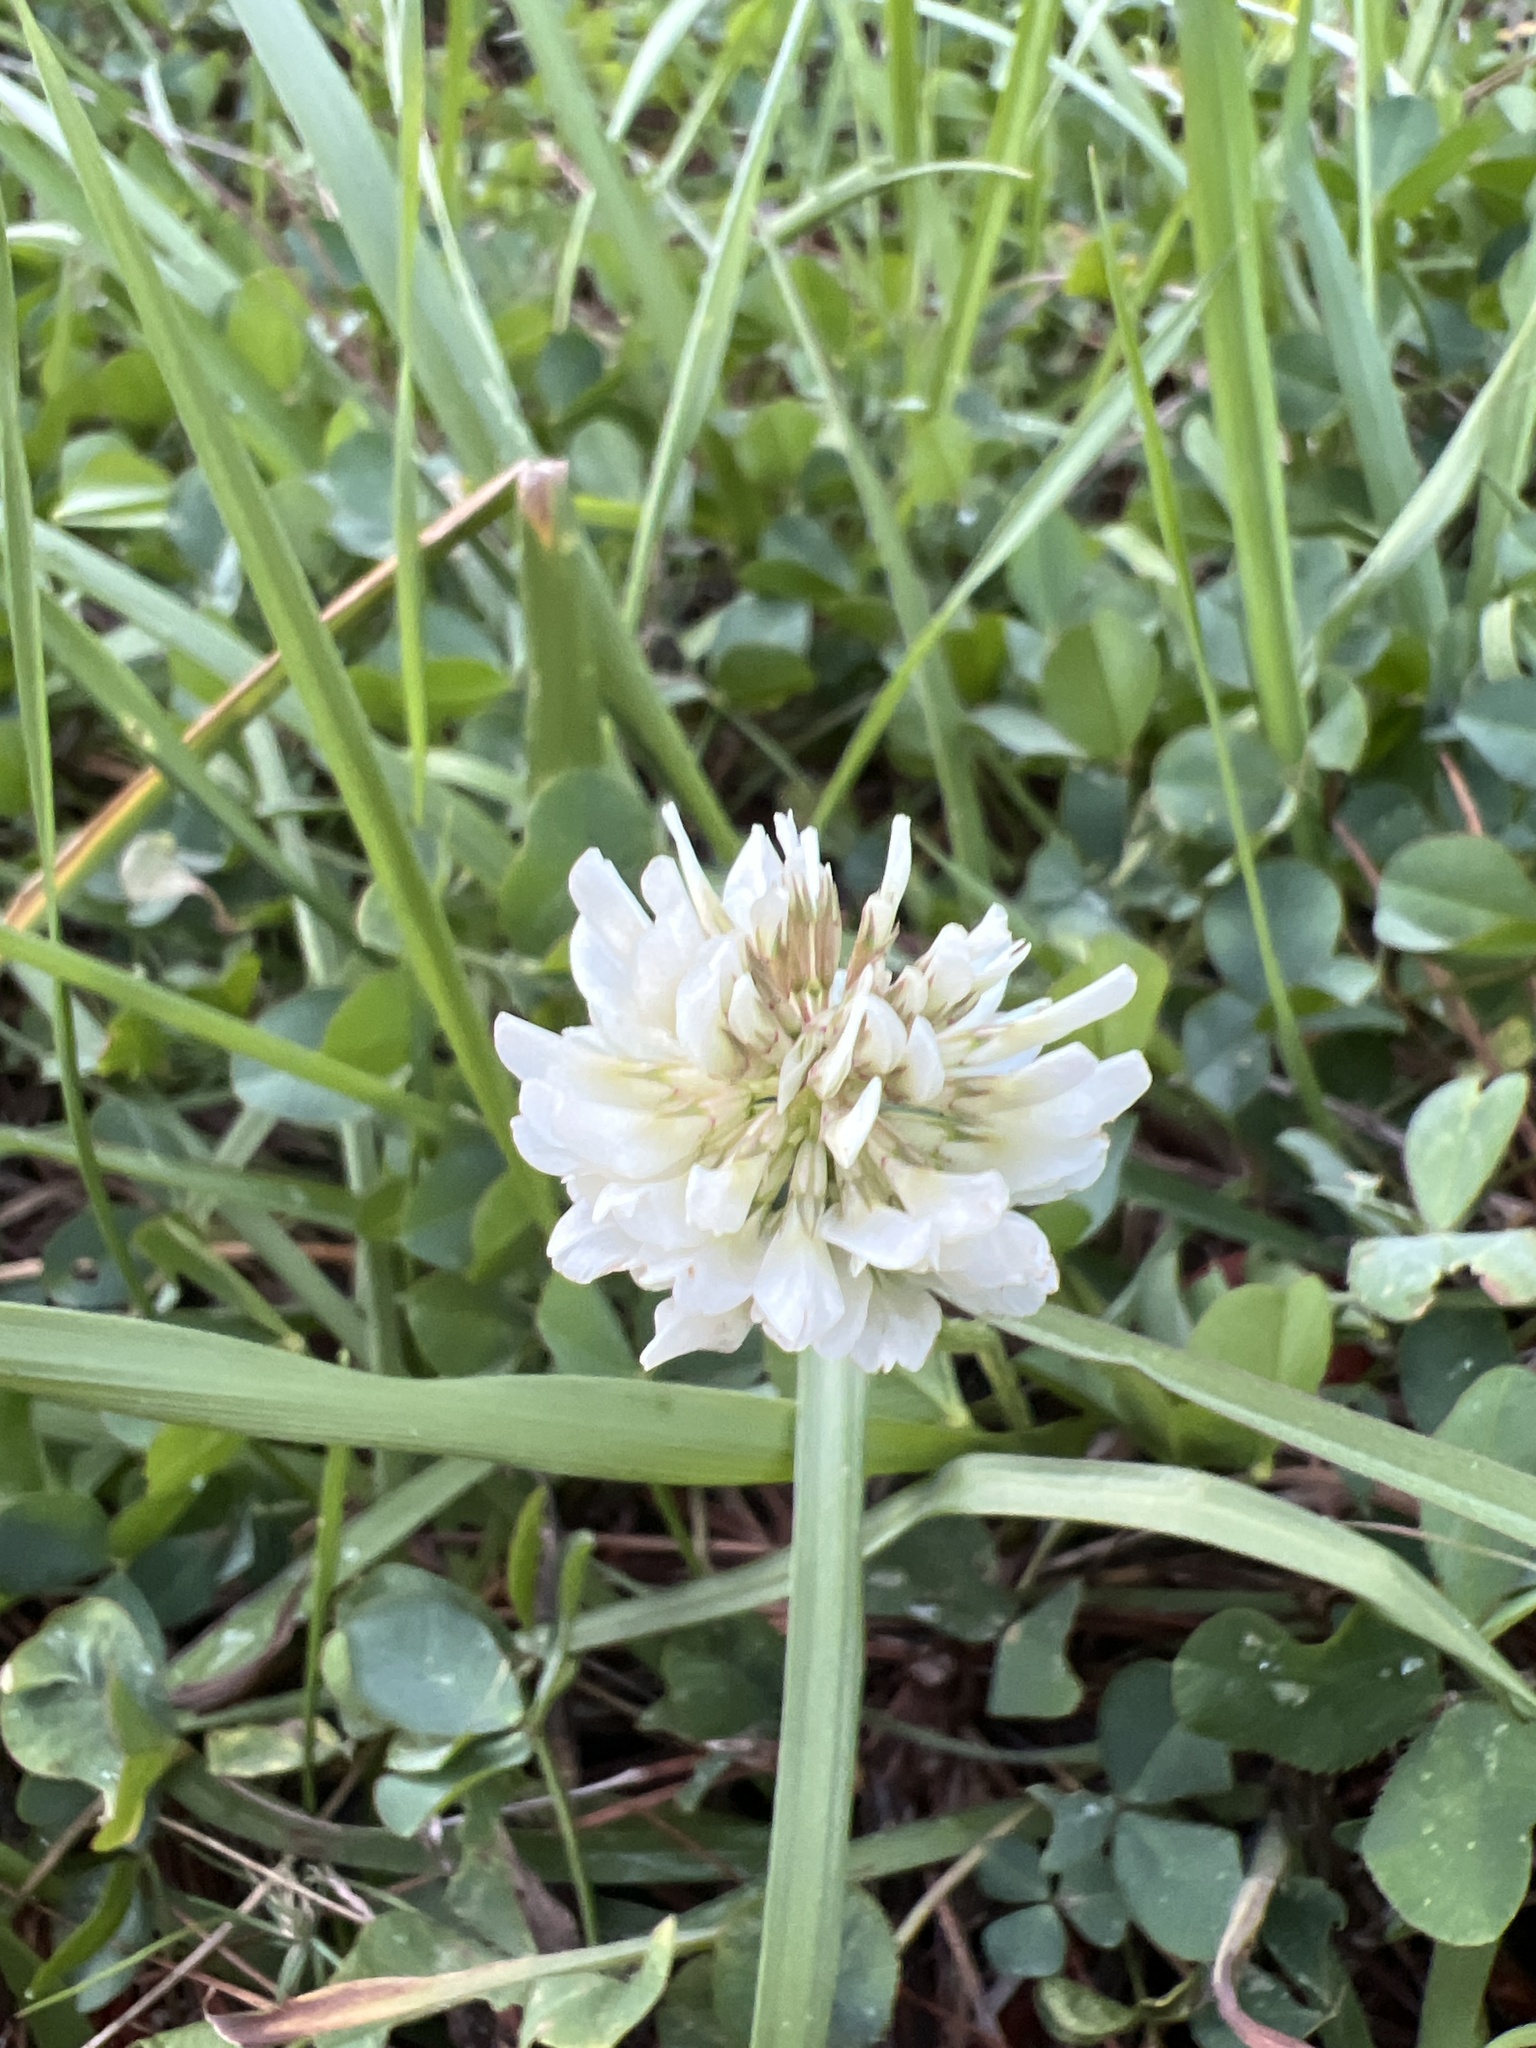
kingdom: Plantae
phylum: Tracheophyta
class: Magnoliopsida
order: Fabales
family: Fabaceae
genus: Trifolium
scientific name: Trifolium repens
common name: White clover
